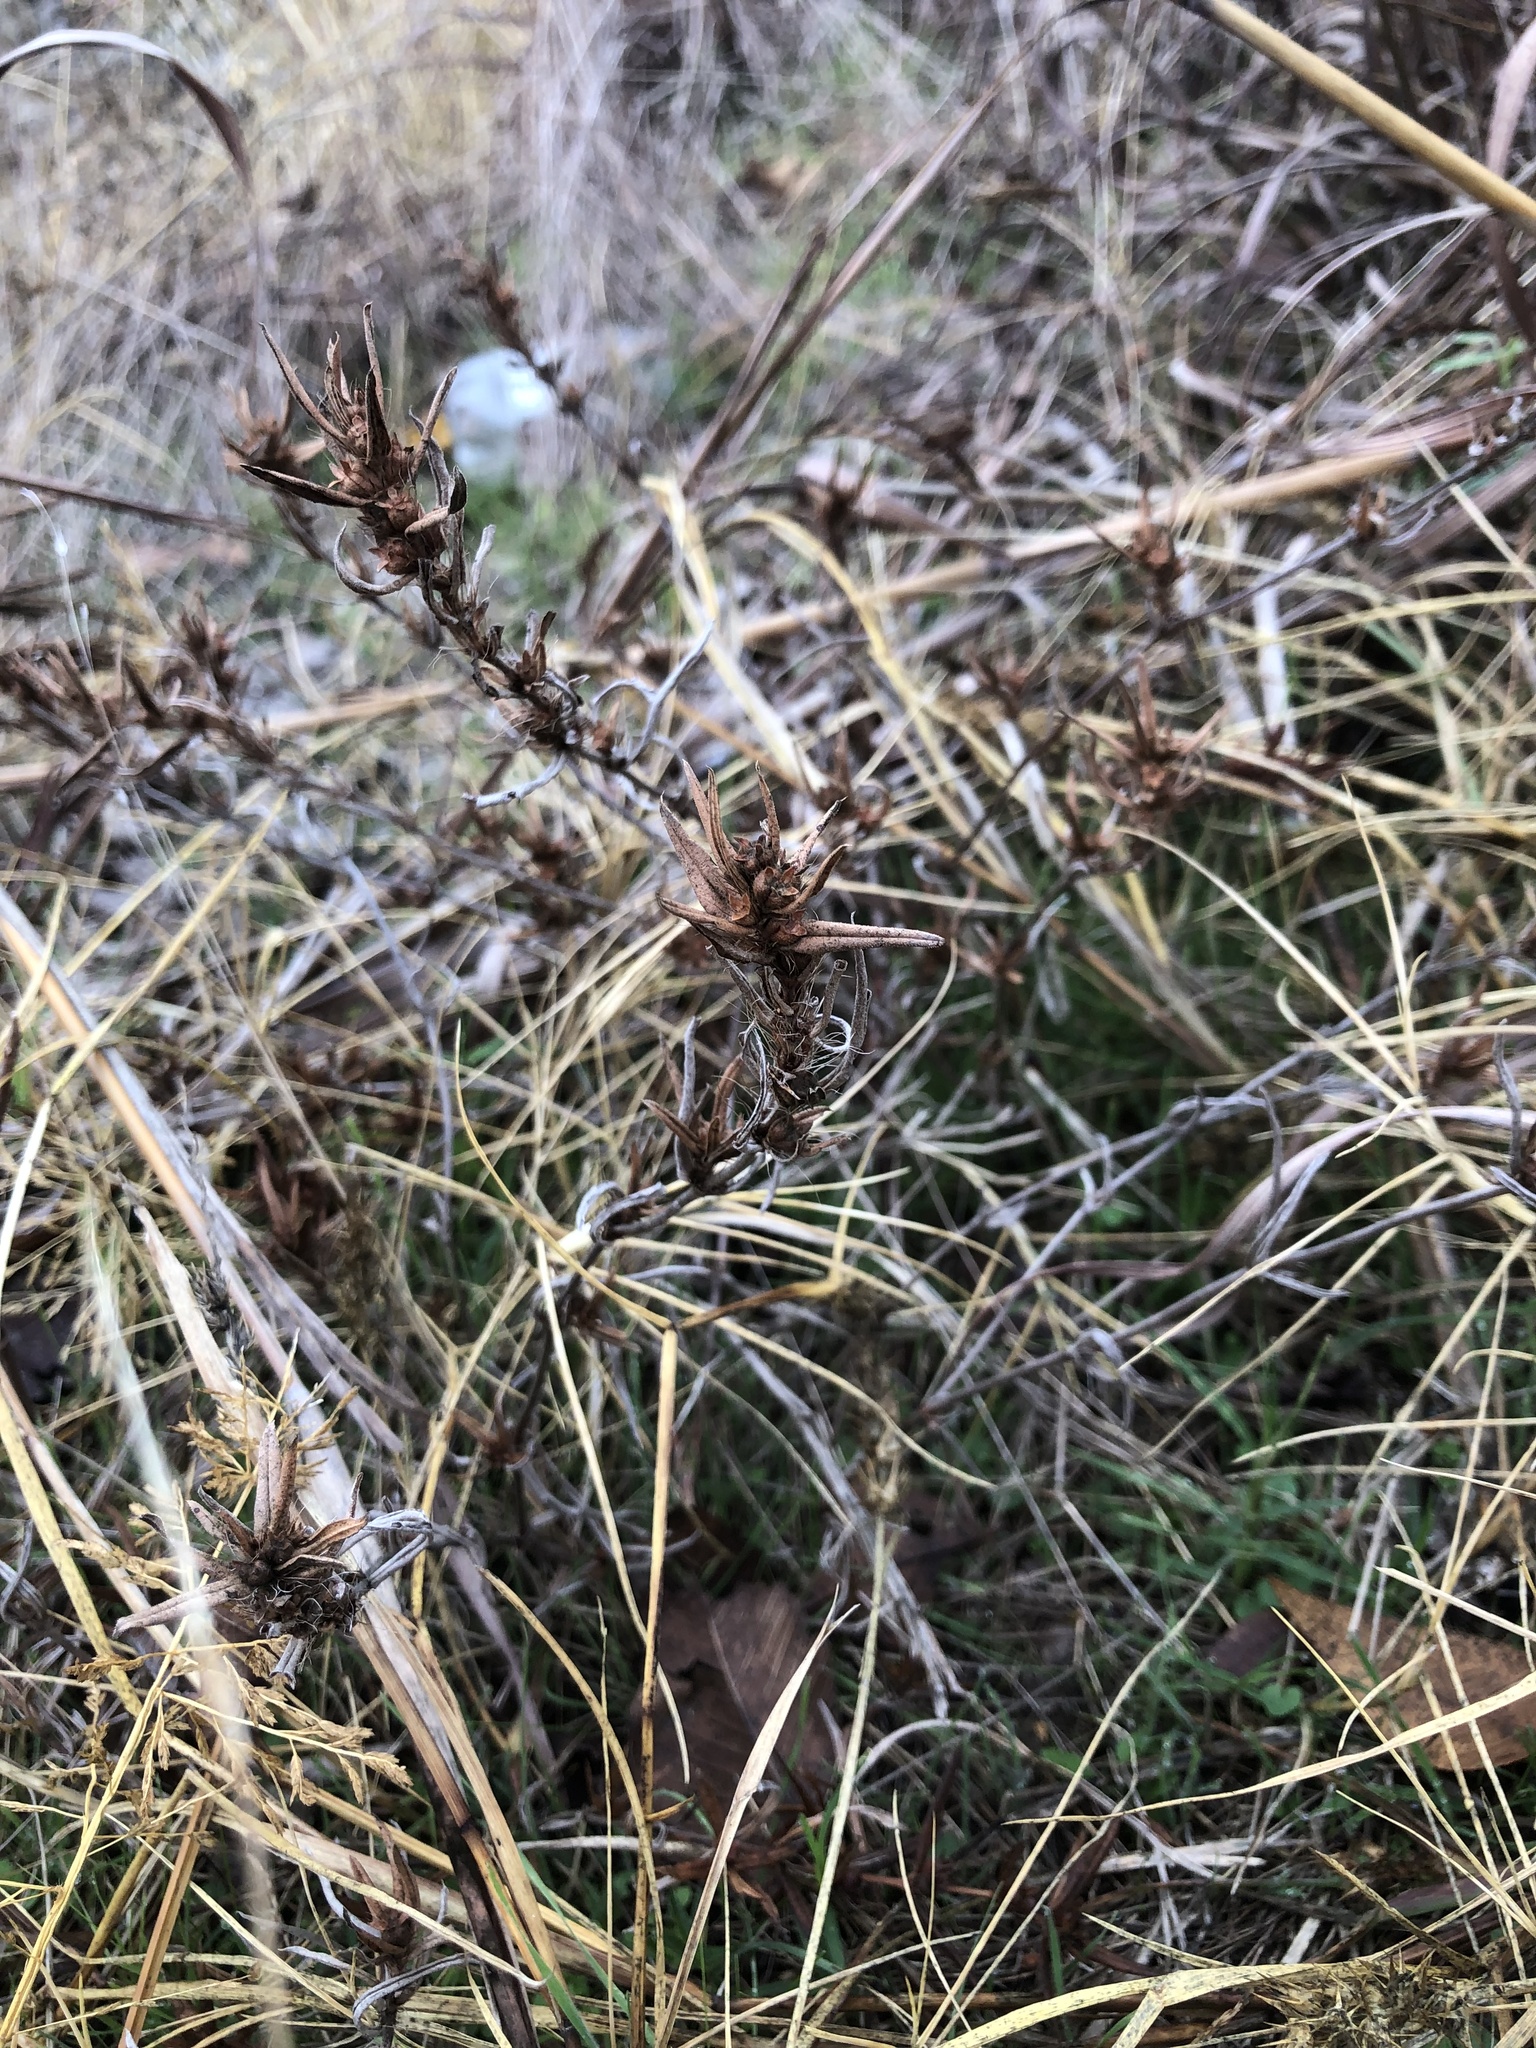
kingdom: Plantae
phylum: Tracheophyta
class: Magnoliopsida
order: Gentianales
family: Rubiaceae
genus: Hexasepalum
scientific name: Hexasepalum teres
